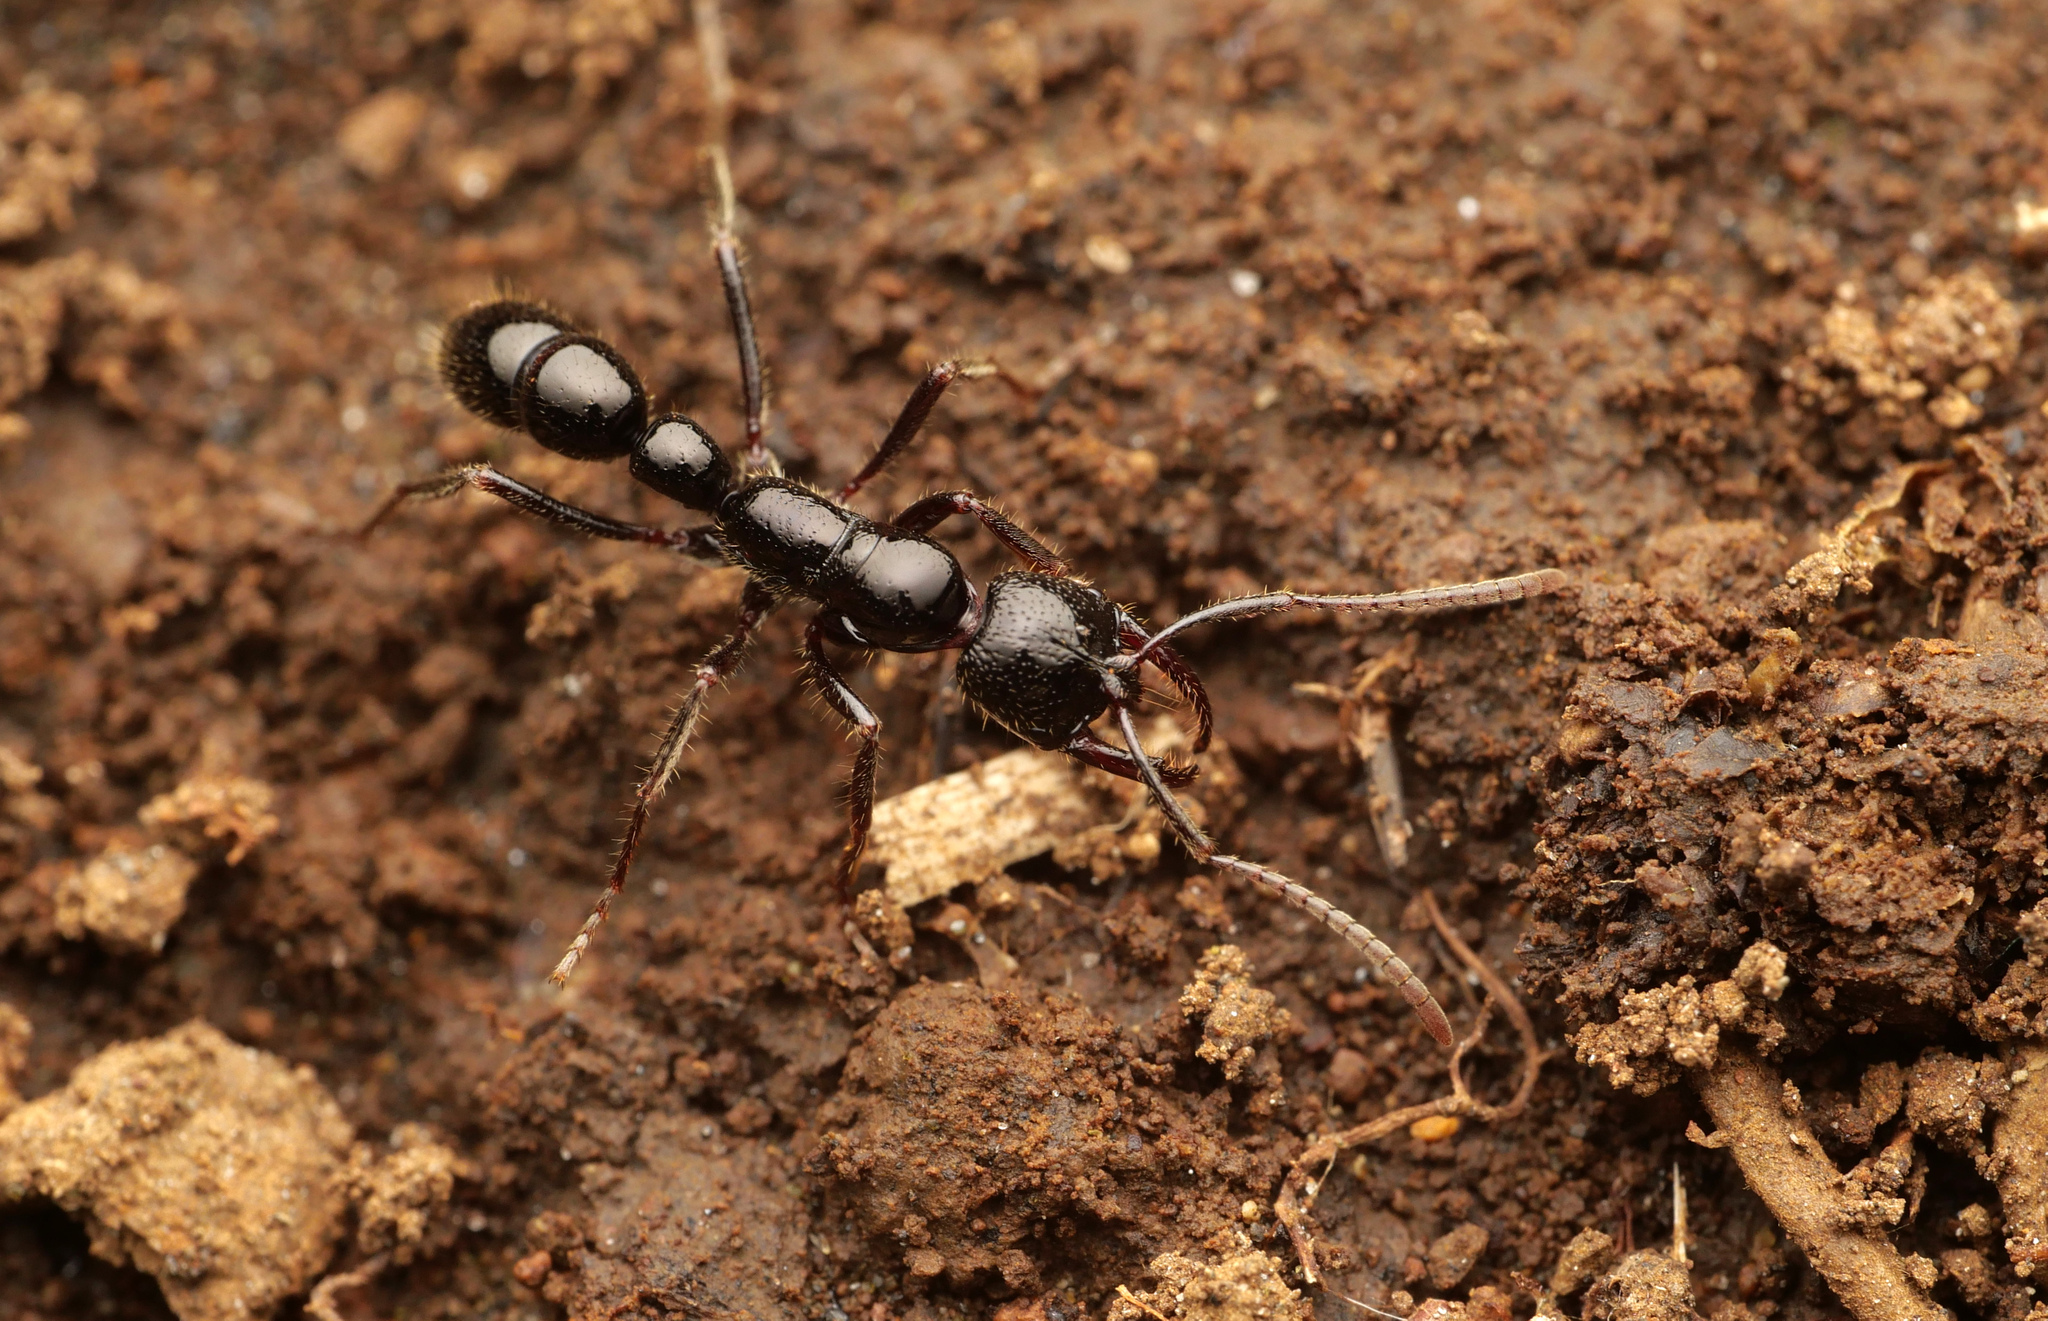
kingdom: Animalia
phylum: Arthropoda
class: Insecta
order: Hymenoptera
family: Formicidae
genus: Myopias
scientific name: Myopias loriai
